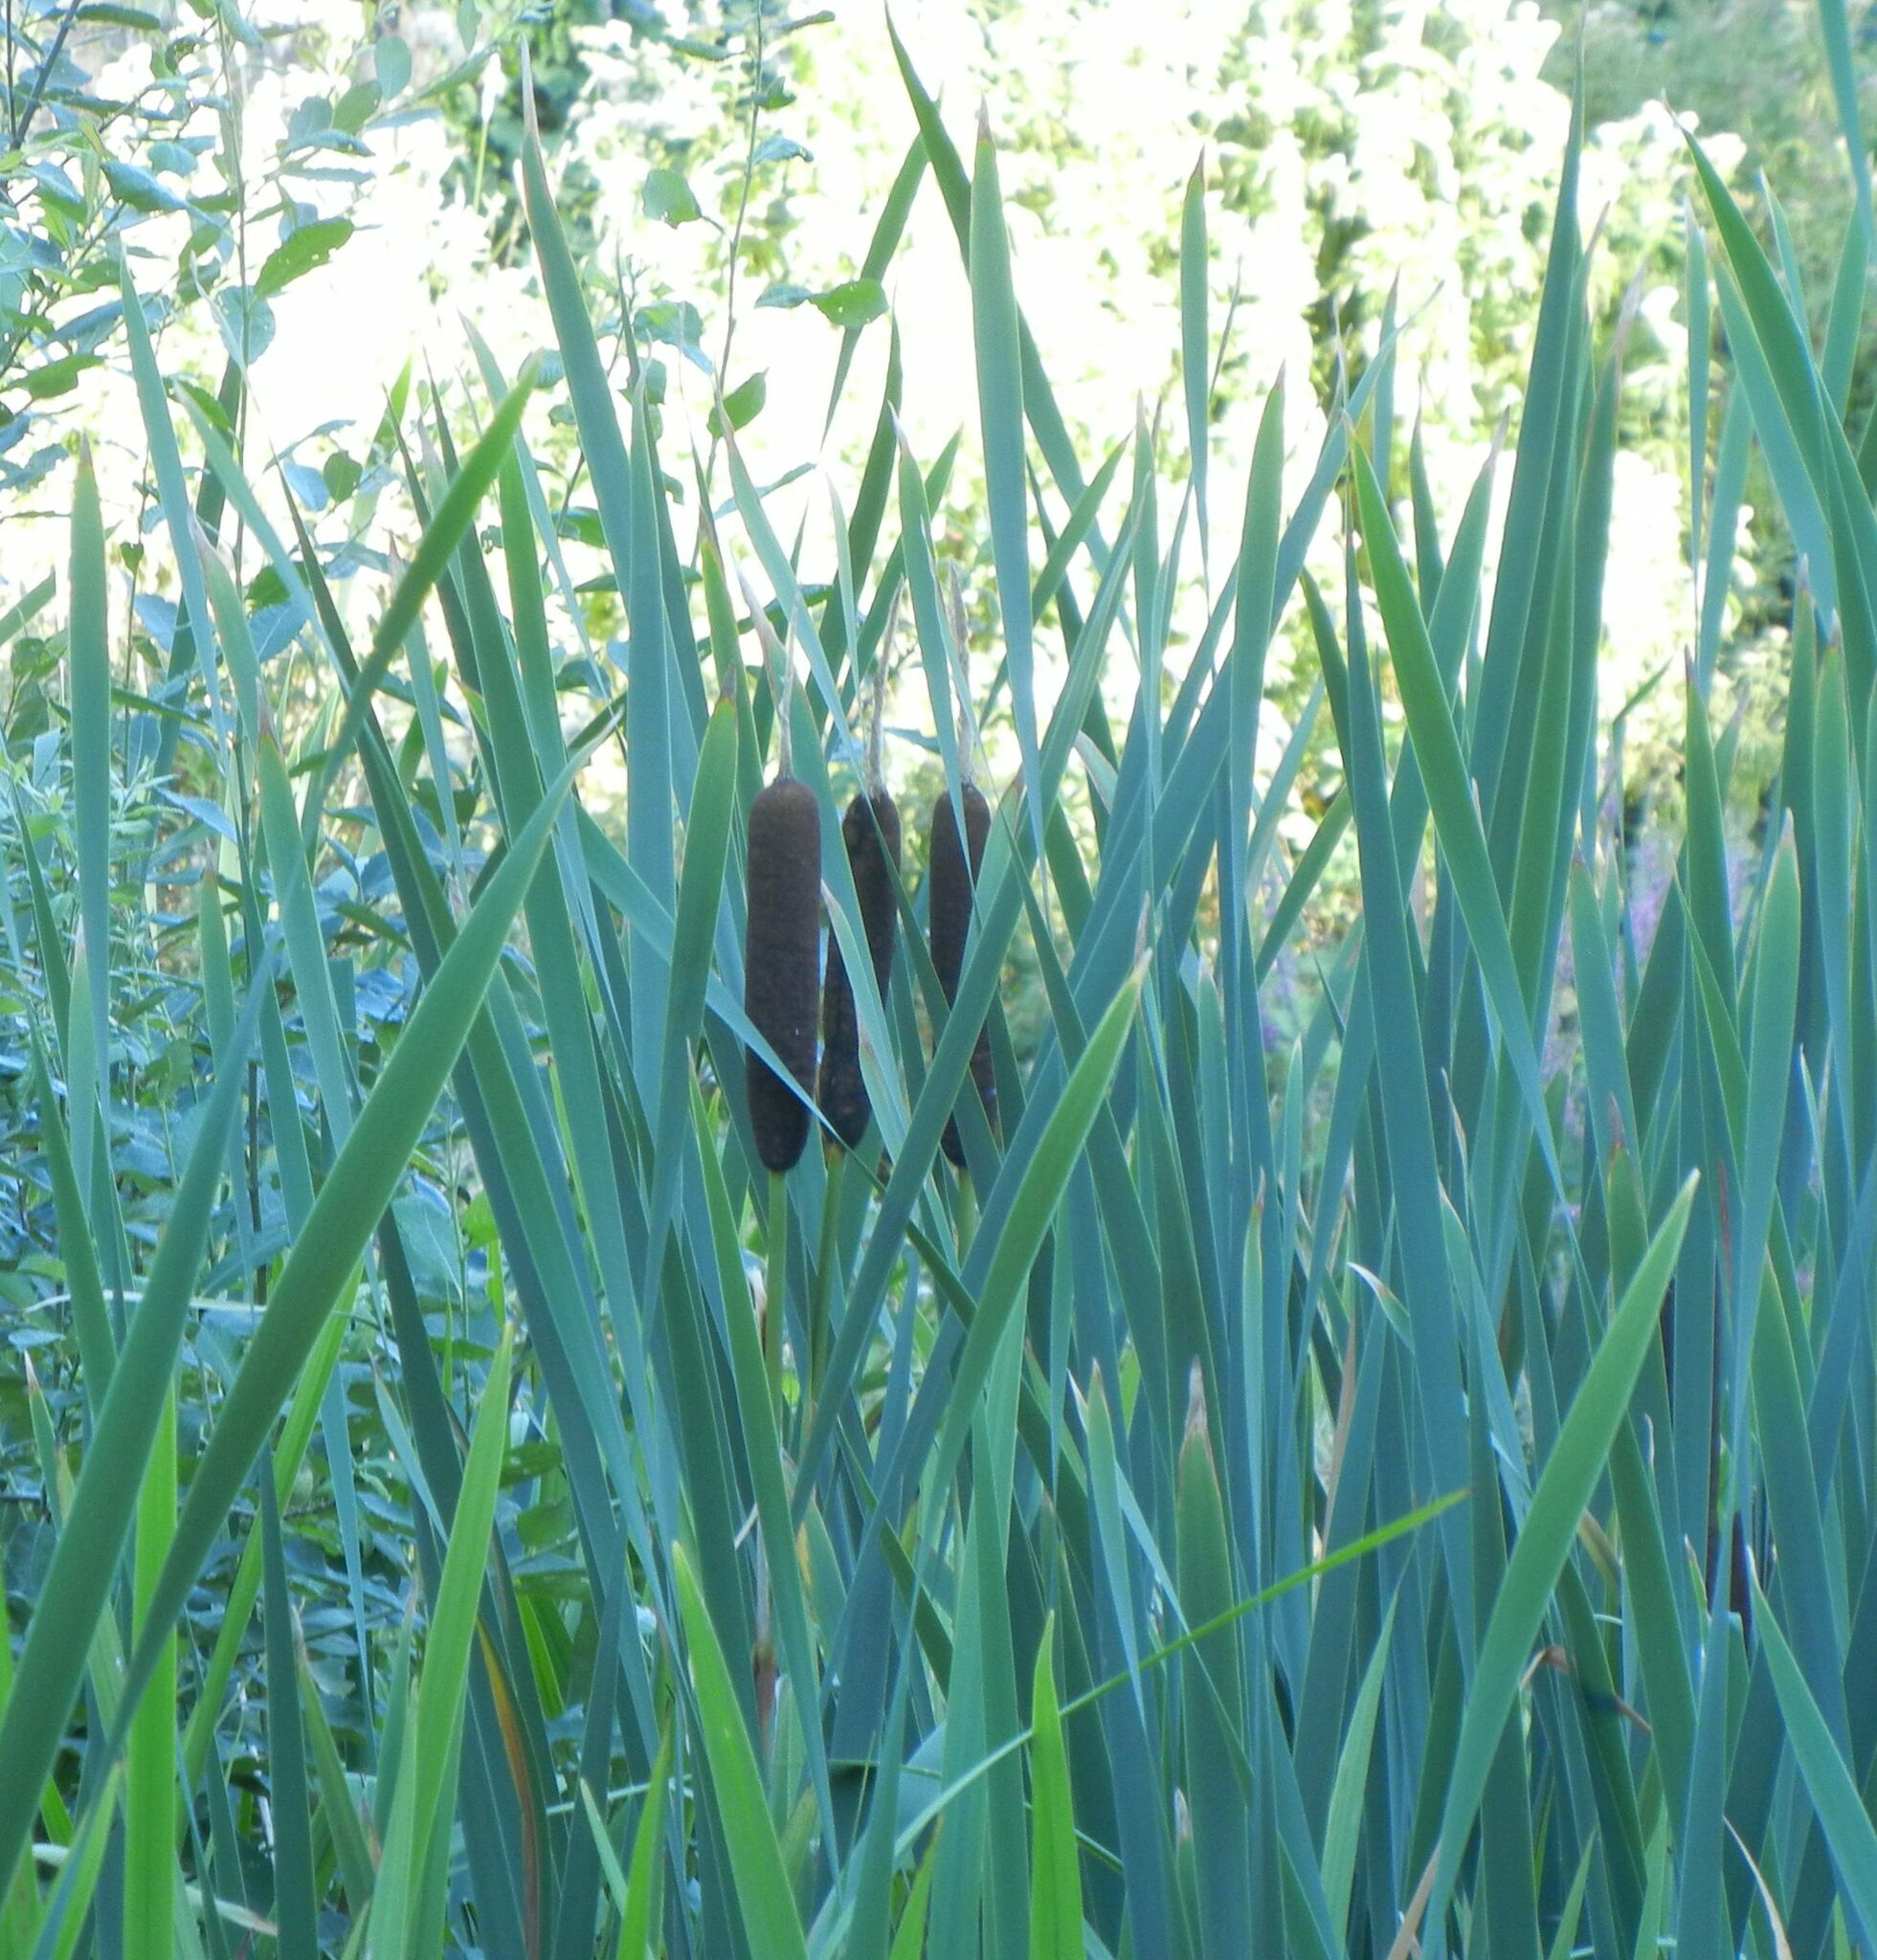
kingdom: Plantae
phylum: Tracheophyta
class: Liliopsida
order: Poales
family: Typhaceae
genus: Typha
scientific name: Typha latifolia
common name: Broadleaf cattail
